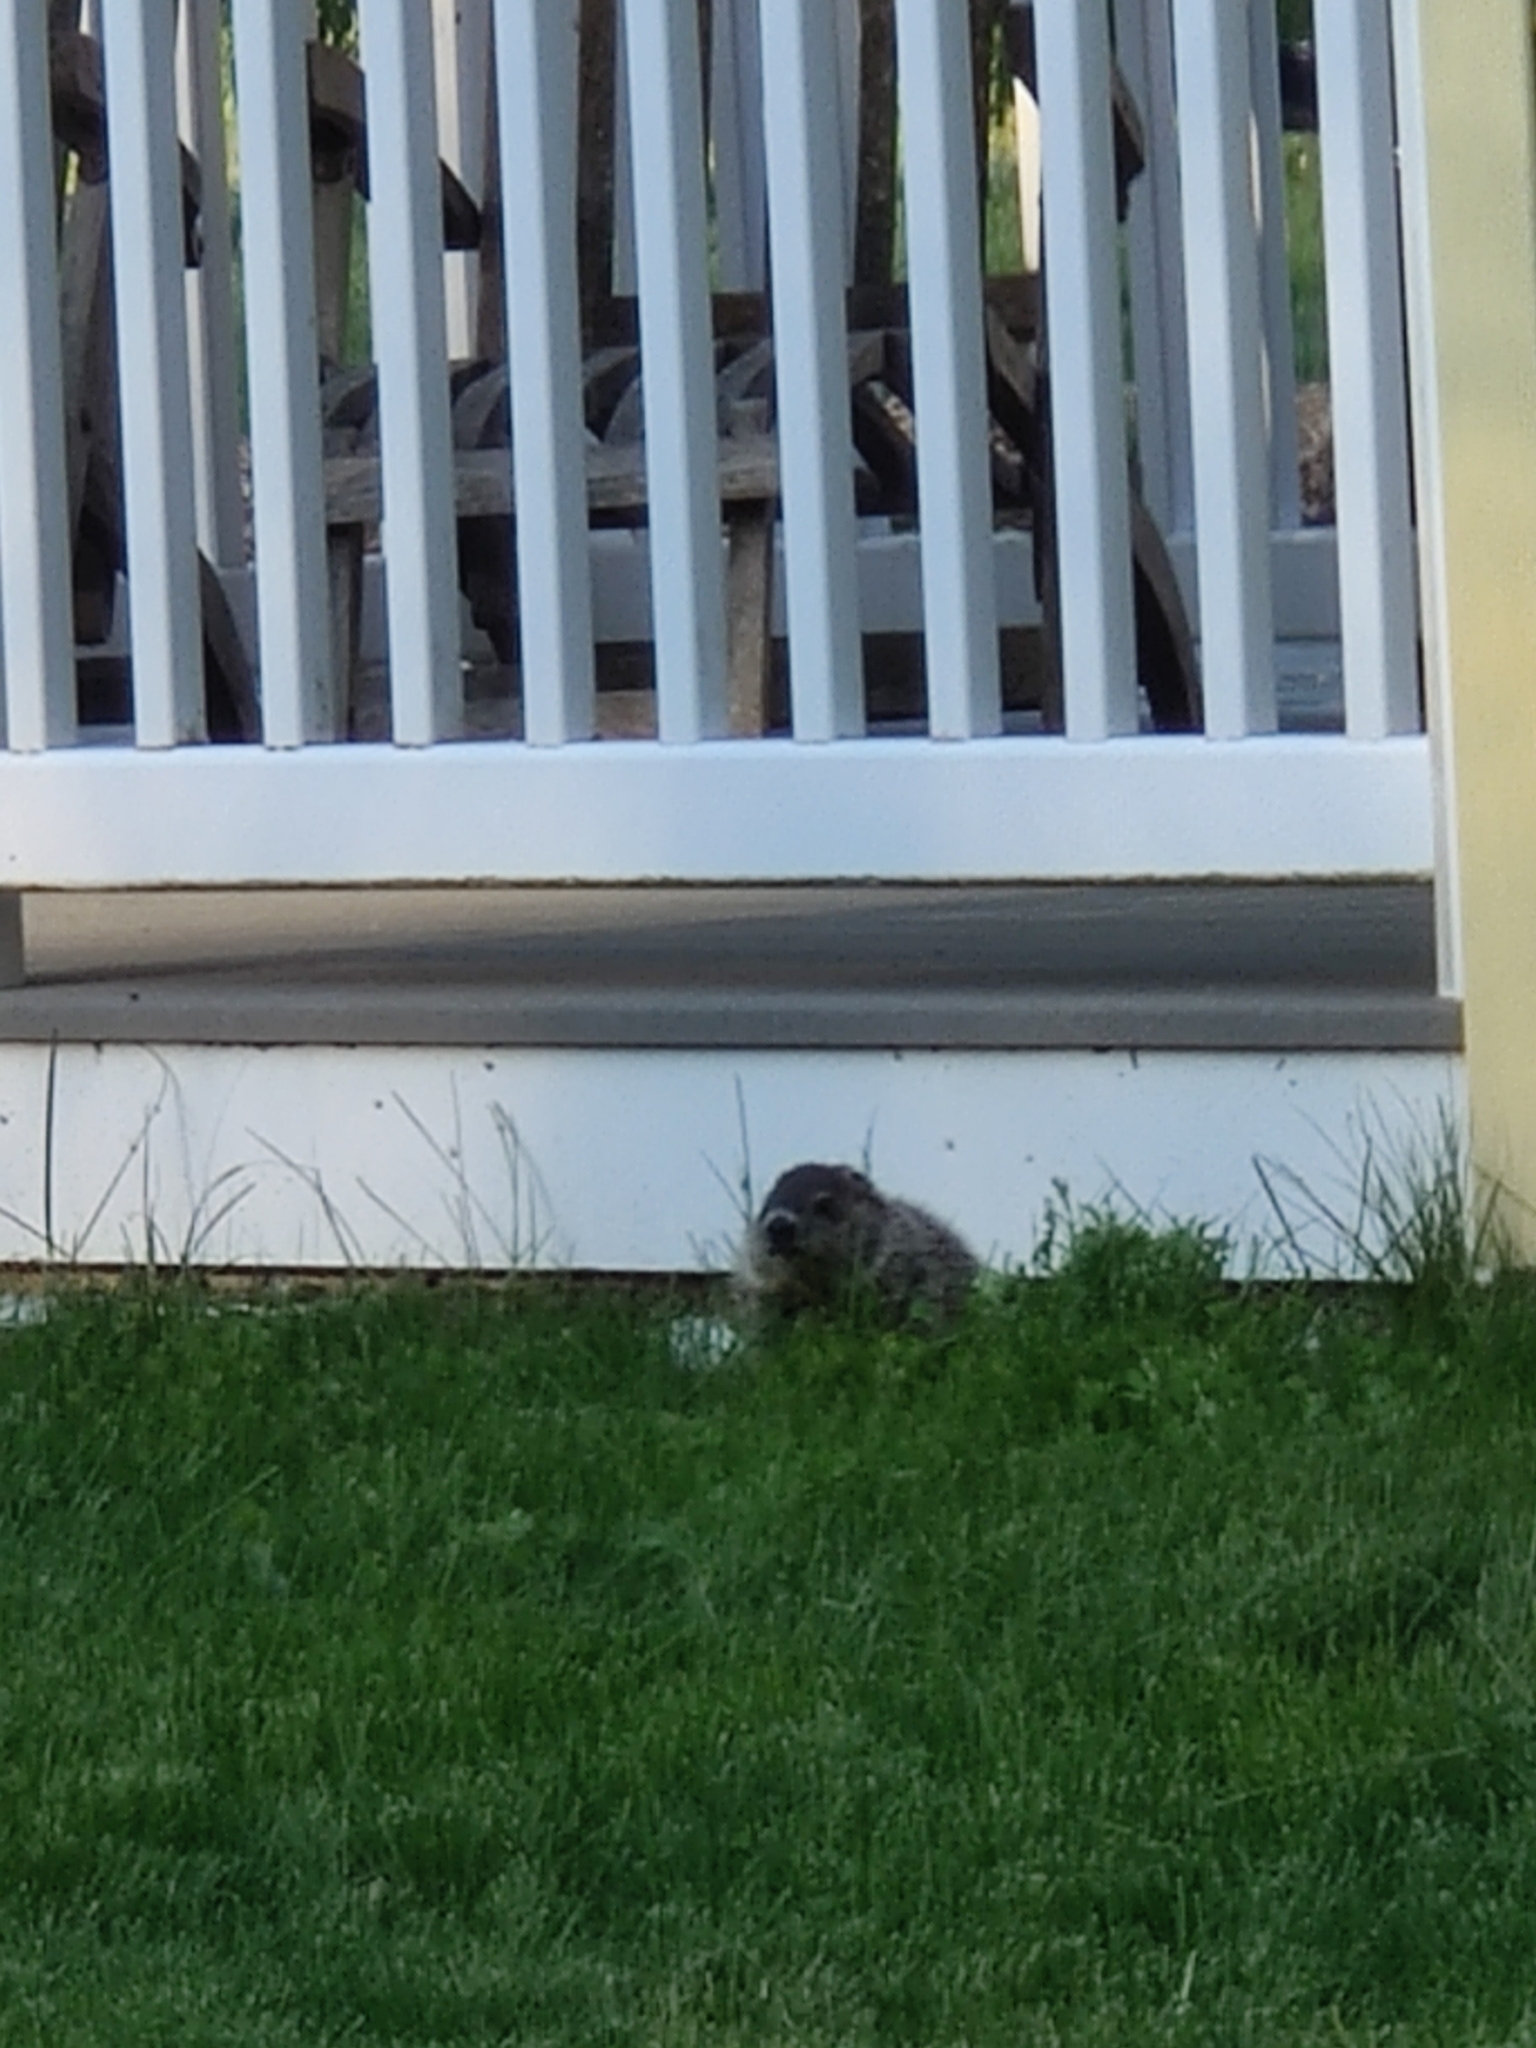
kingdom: Animalia
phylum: Chordata
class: Mammalia
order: Rodentia
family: Sciuridae
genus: Marmota
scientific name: Marmota monax
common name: Groundhog
